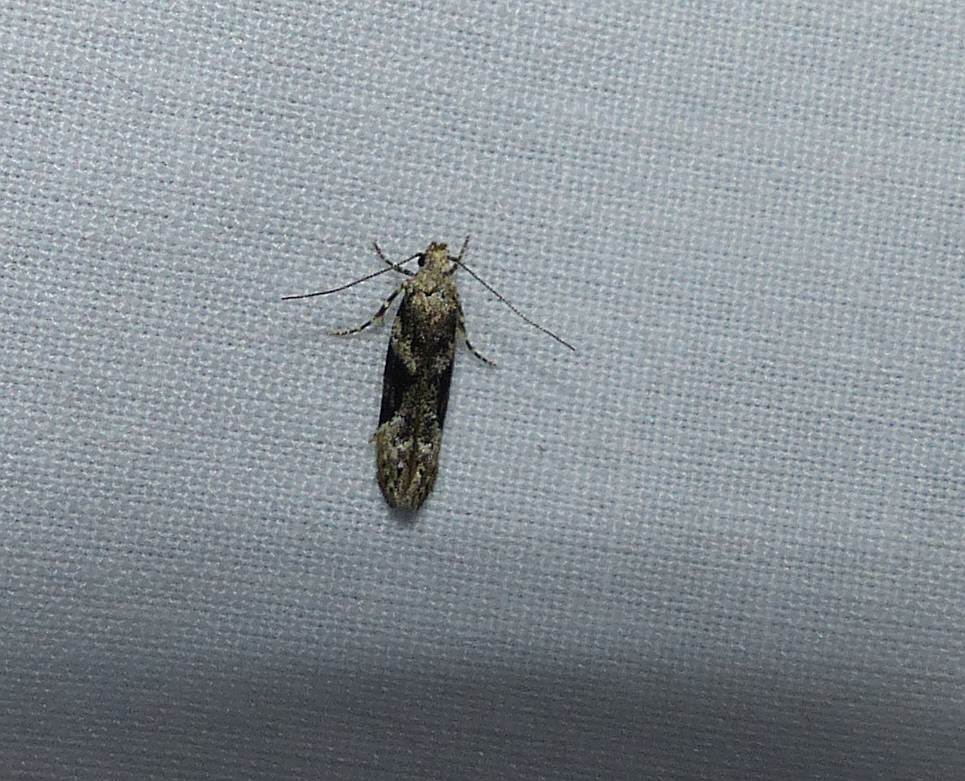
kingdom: Animalia
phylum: Arthropoda
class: Insecta
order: Lepidoptera
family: Gelechiidae
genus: Coleotechnites
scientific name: Coleotechnites atrupictella
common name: Spruce micromoth
